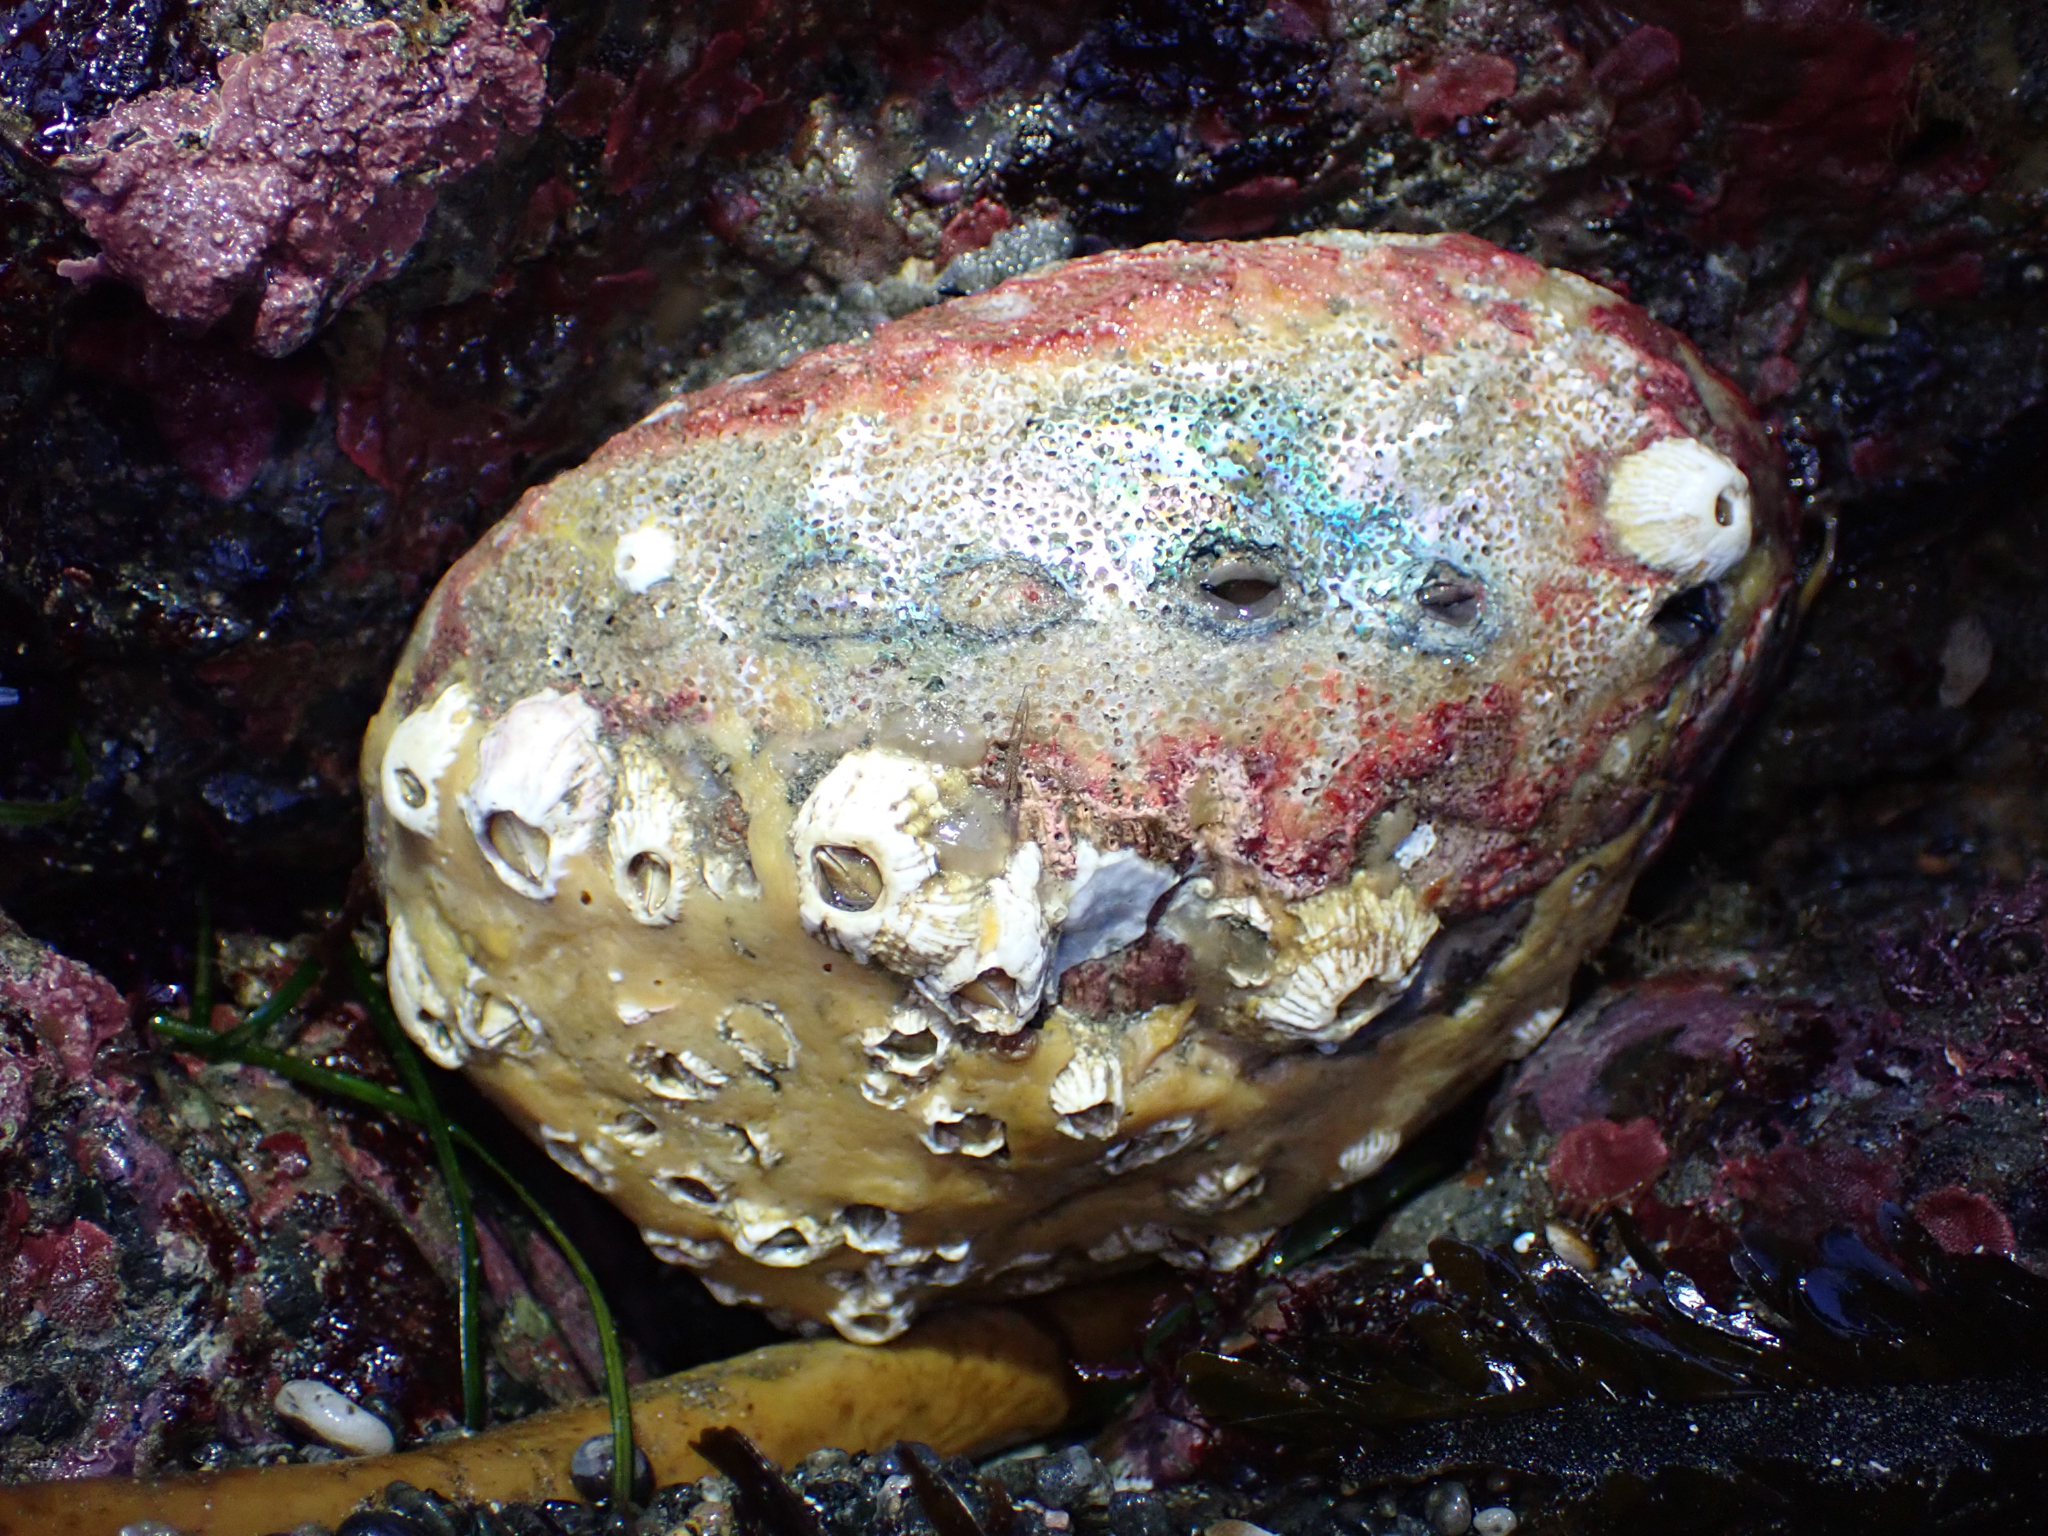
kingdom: Animalia
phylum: Mollusca
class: Gastropoda
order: Lepetellida
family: Haliotidae
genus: Haliotis
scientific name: Haliotis rufescens
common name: Red abalone
